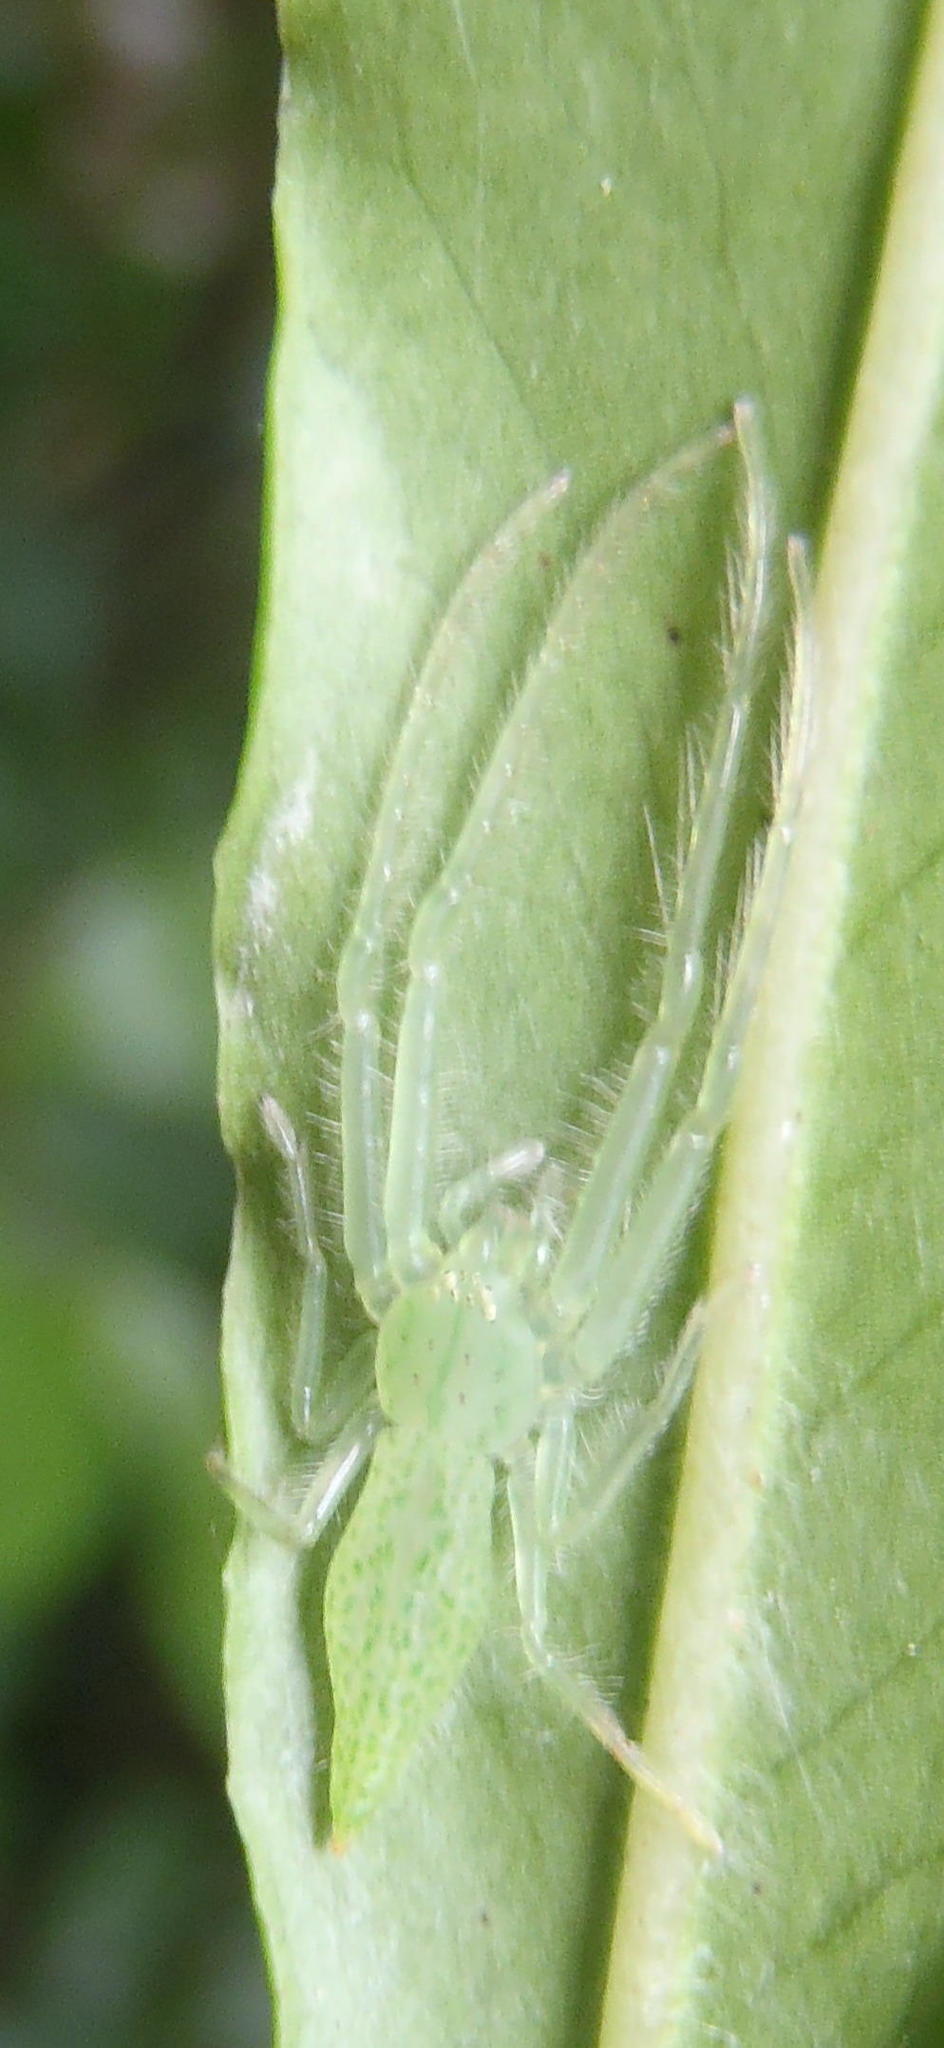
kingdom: Animalia
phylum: Arthropoda
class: Arachnida
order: Araneae
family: Thomisidae
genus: Oxytate
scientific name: Oxytate argenteooculata
